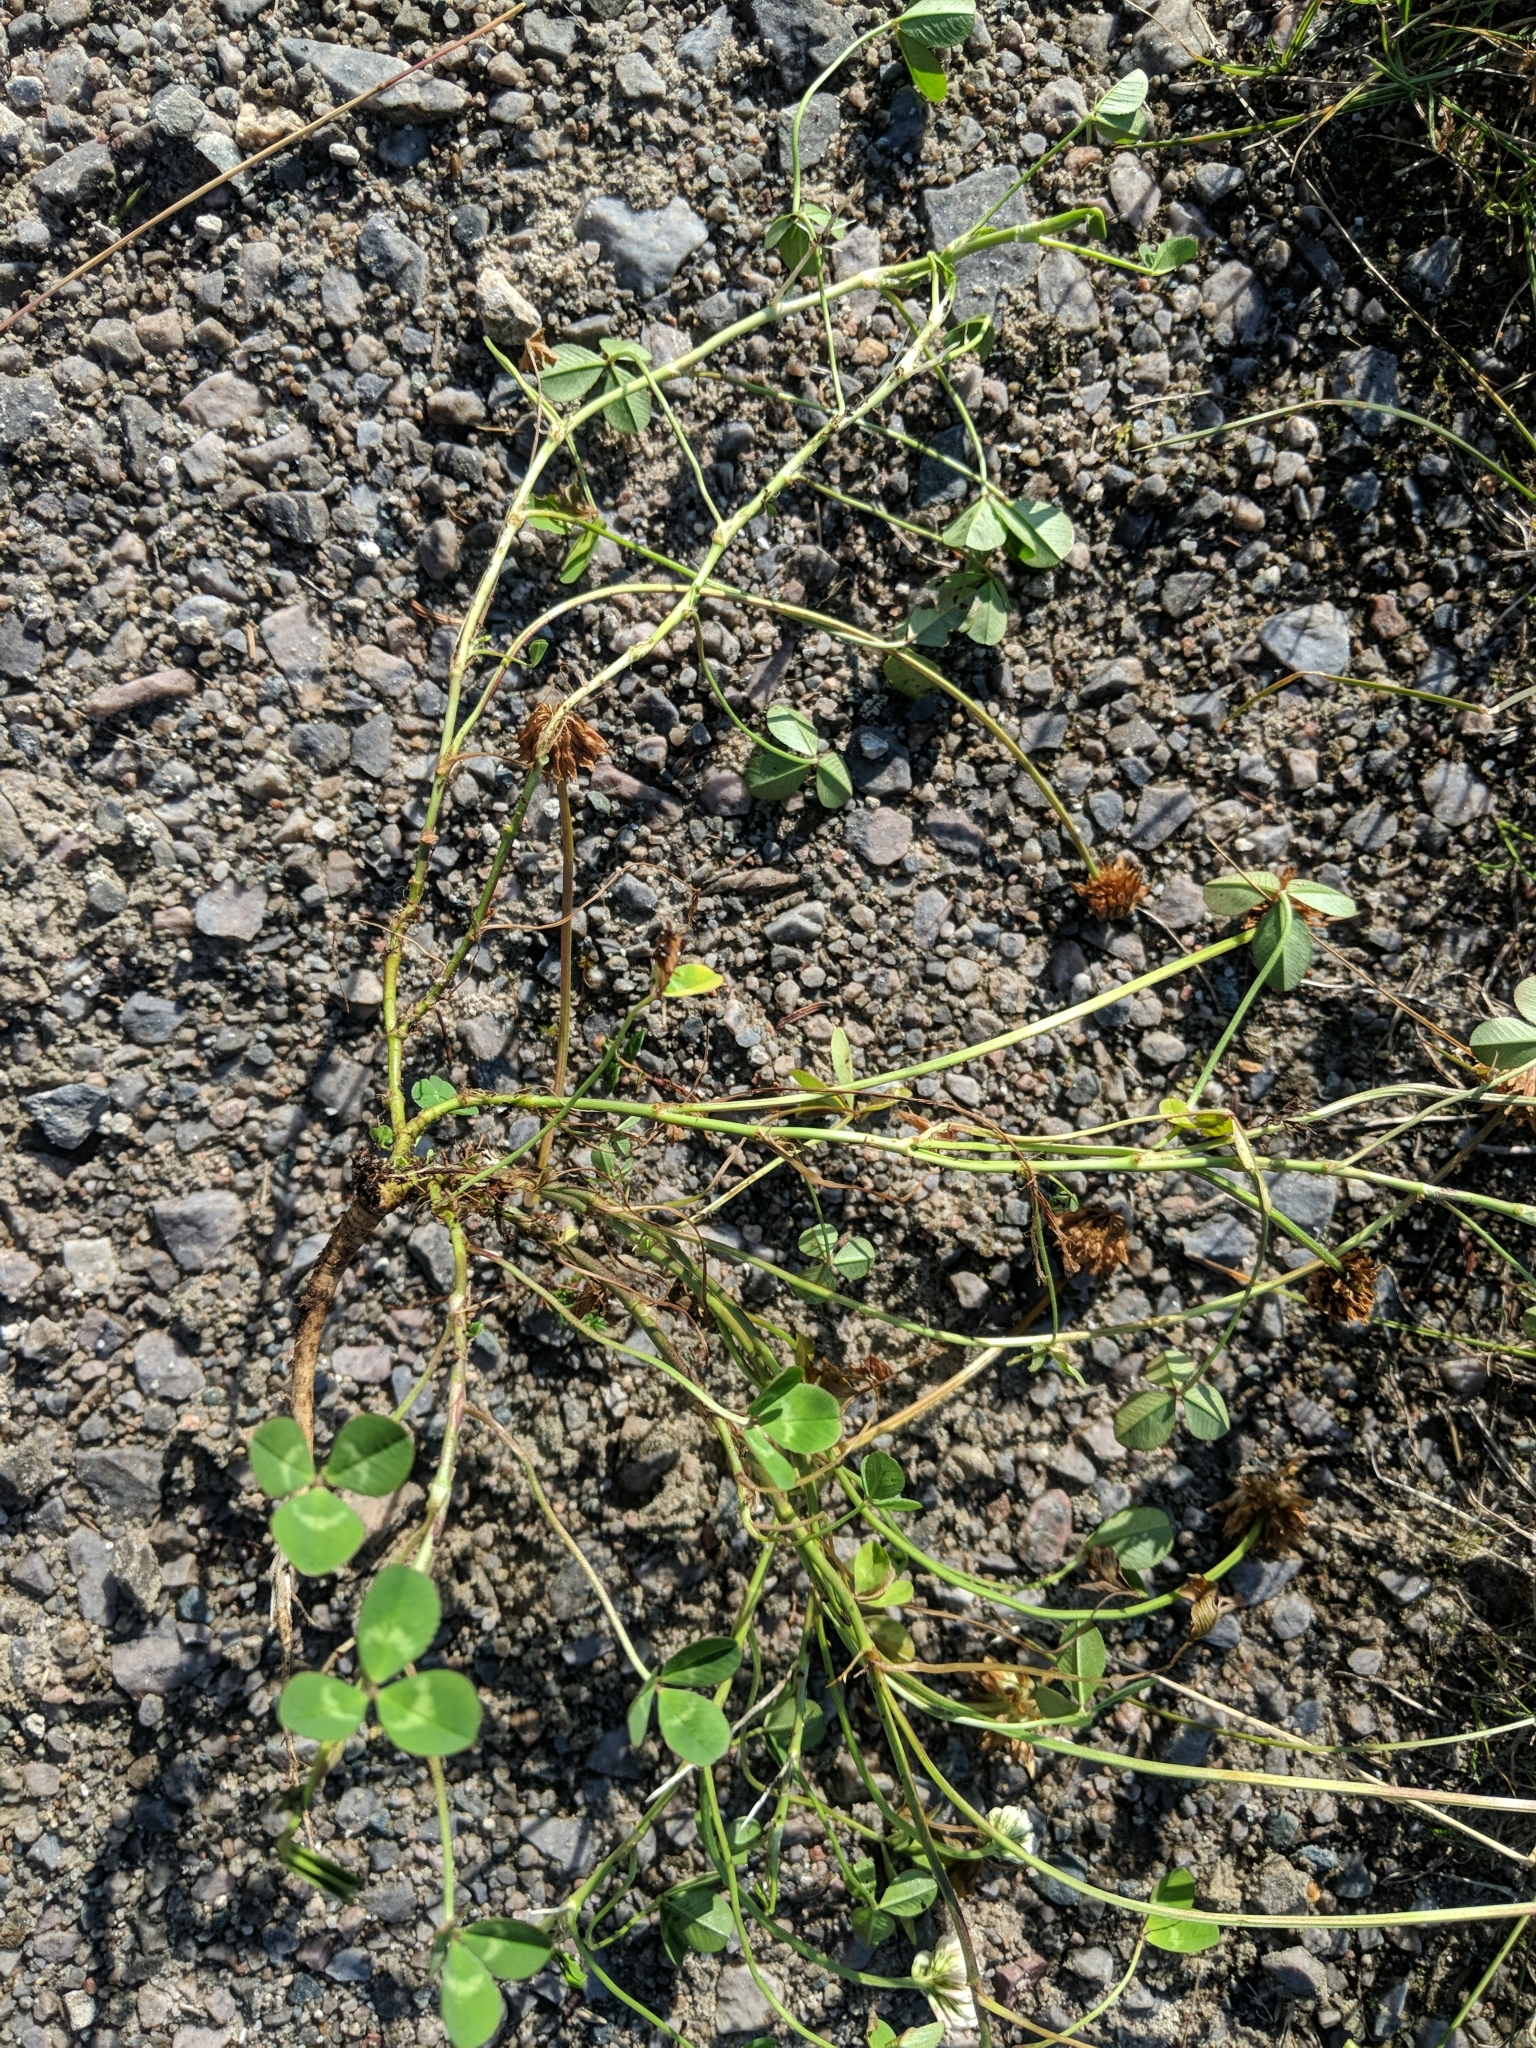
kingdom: Plantae
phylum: Tracheophyta
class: Magnoliopsida
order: Fabales
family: Fabaceae
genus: Trifolium
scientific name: Trifolium repens
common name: White clover
